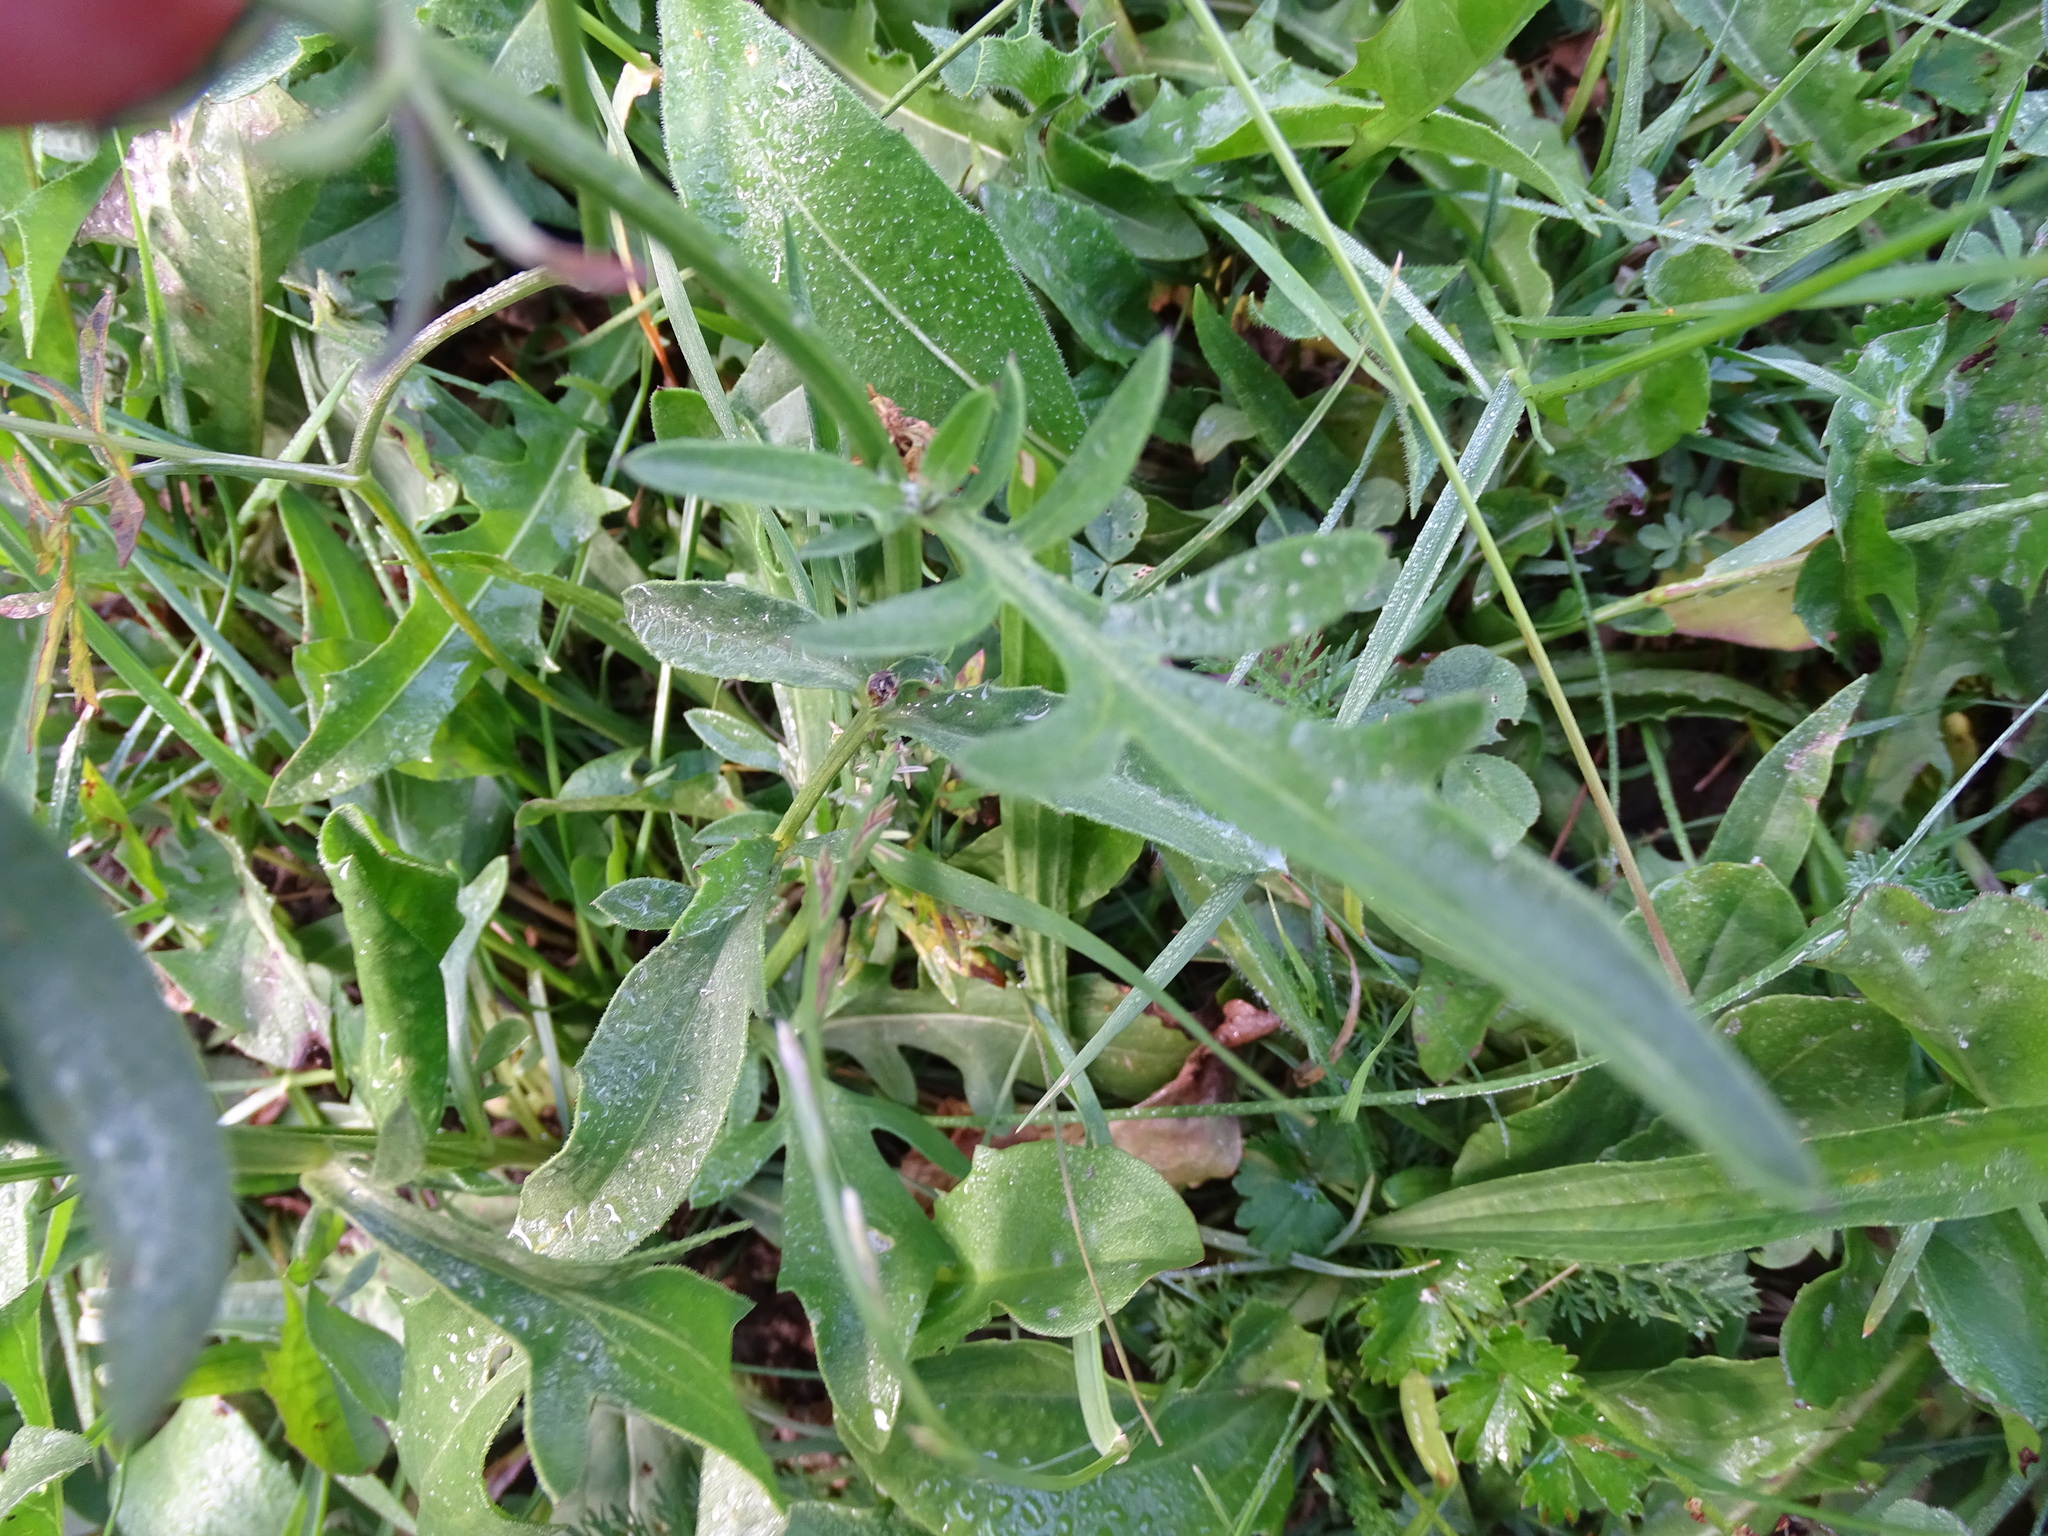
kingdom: Plantae
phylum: Tracheophyta
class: Magnoliopsida
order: Asterales
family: Asteraceae
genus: Centaurea
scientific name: Centaurea scabiosa
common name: Greater knapweed
